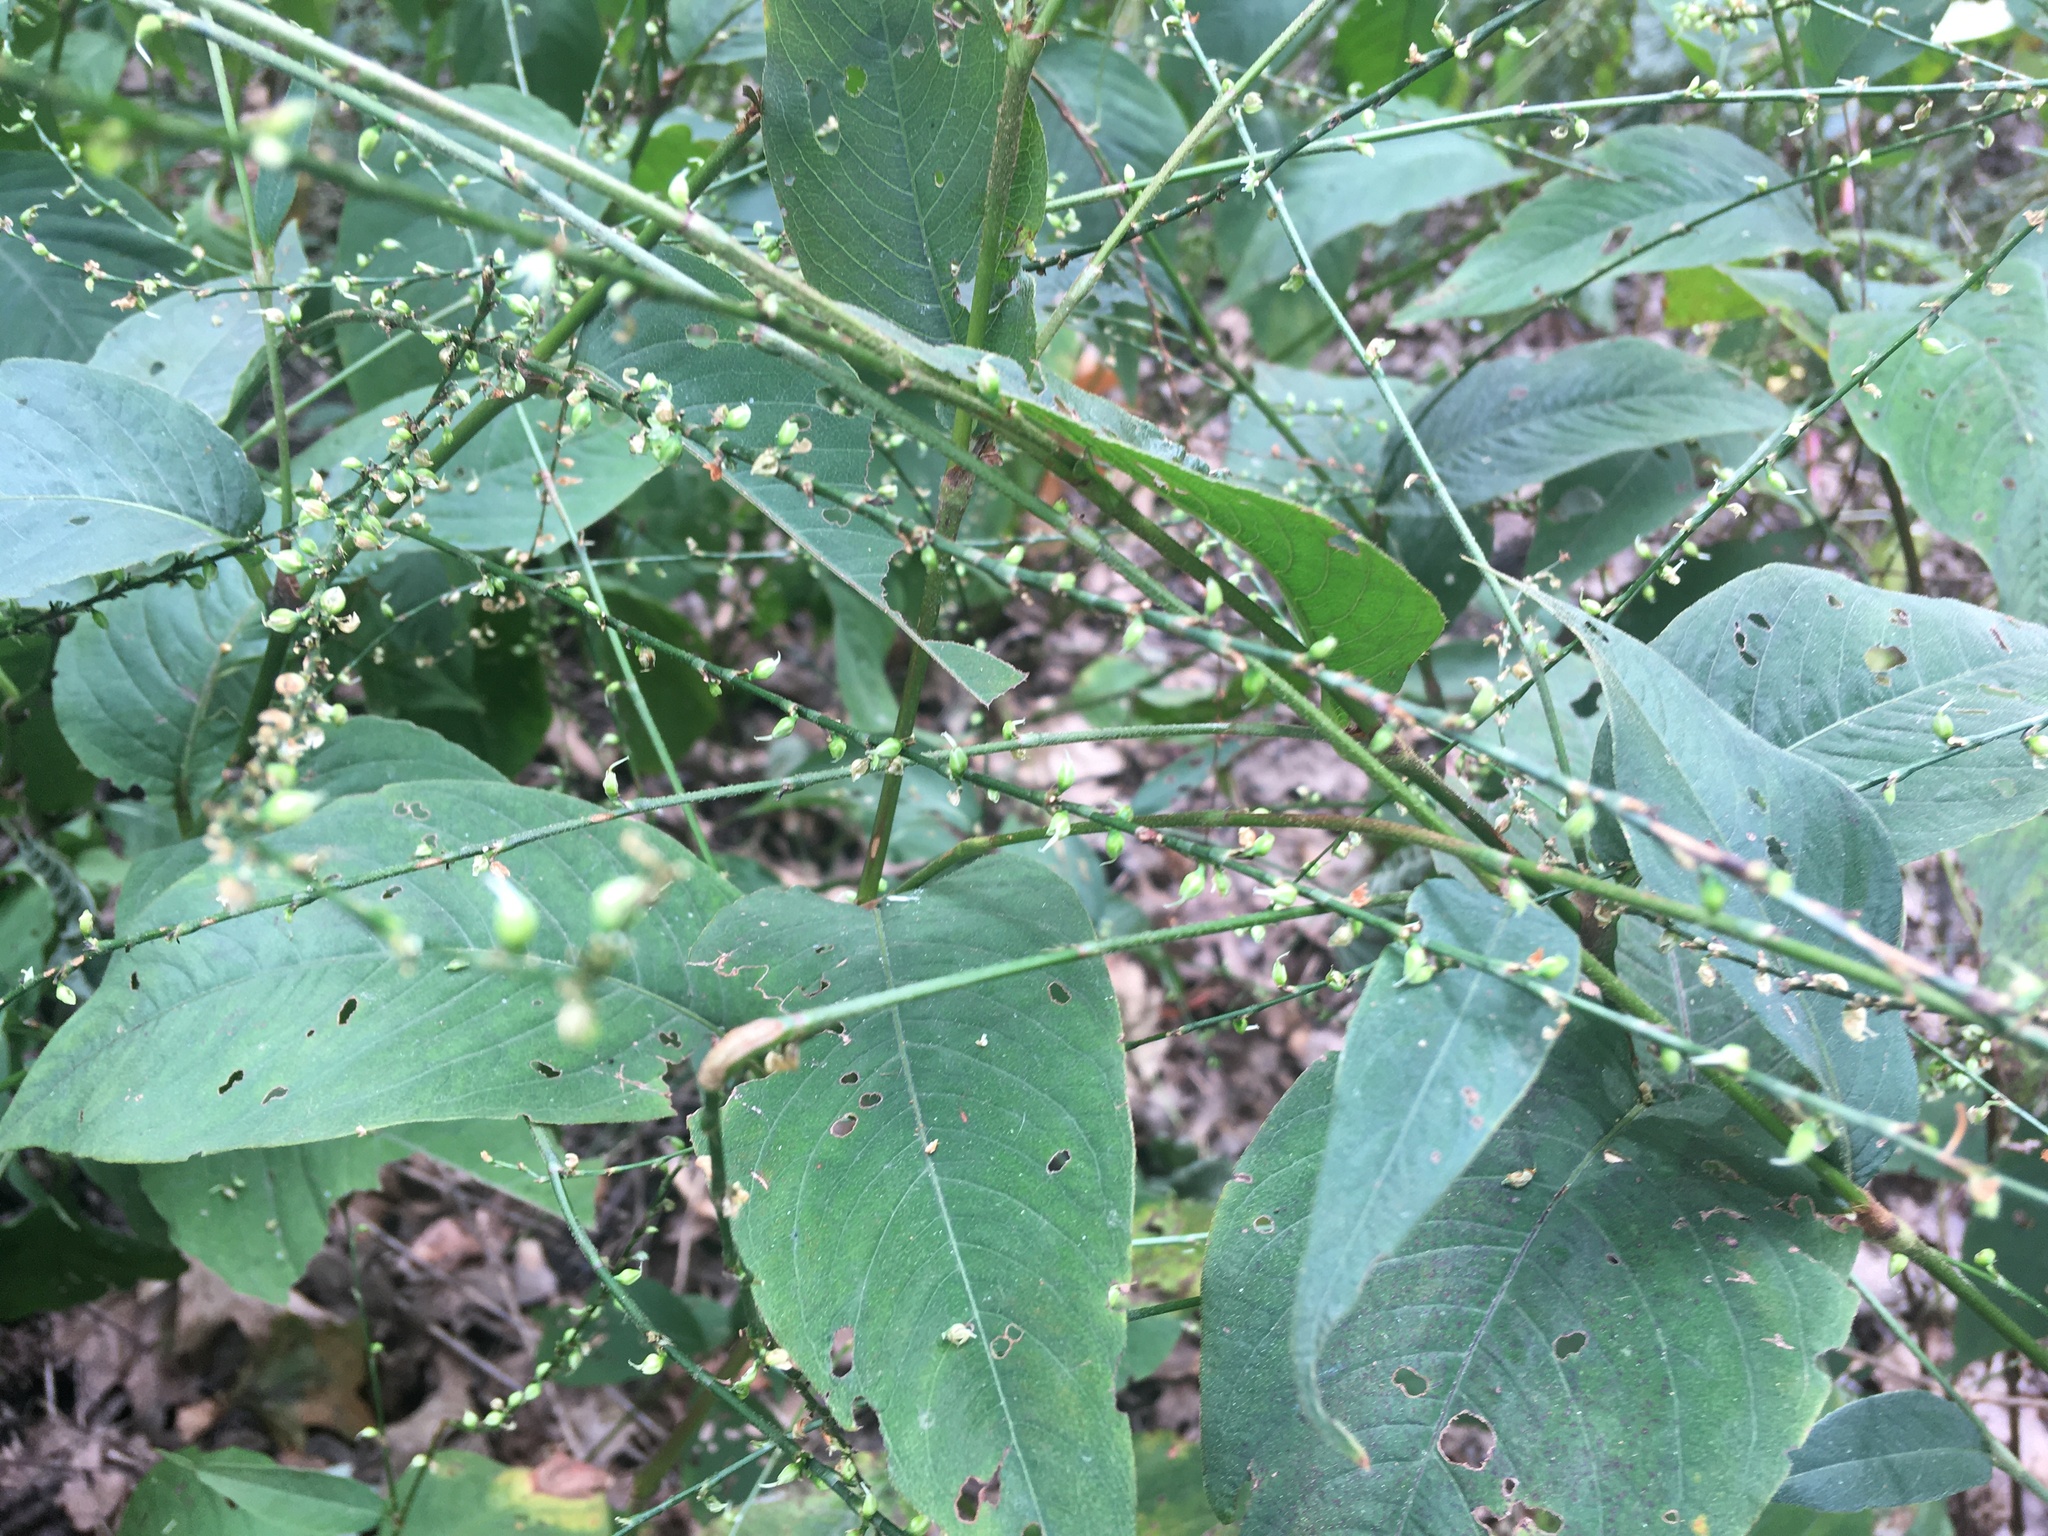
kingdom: Plantae
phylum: Tracheophyta
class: Magnoliopsida
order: Caryophyllales
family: Polygonaceae
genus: Persicaria
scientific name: Persicaria virginiana
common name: Jumpseed
